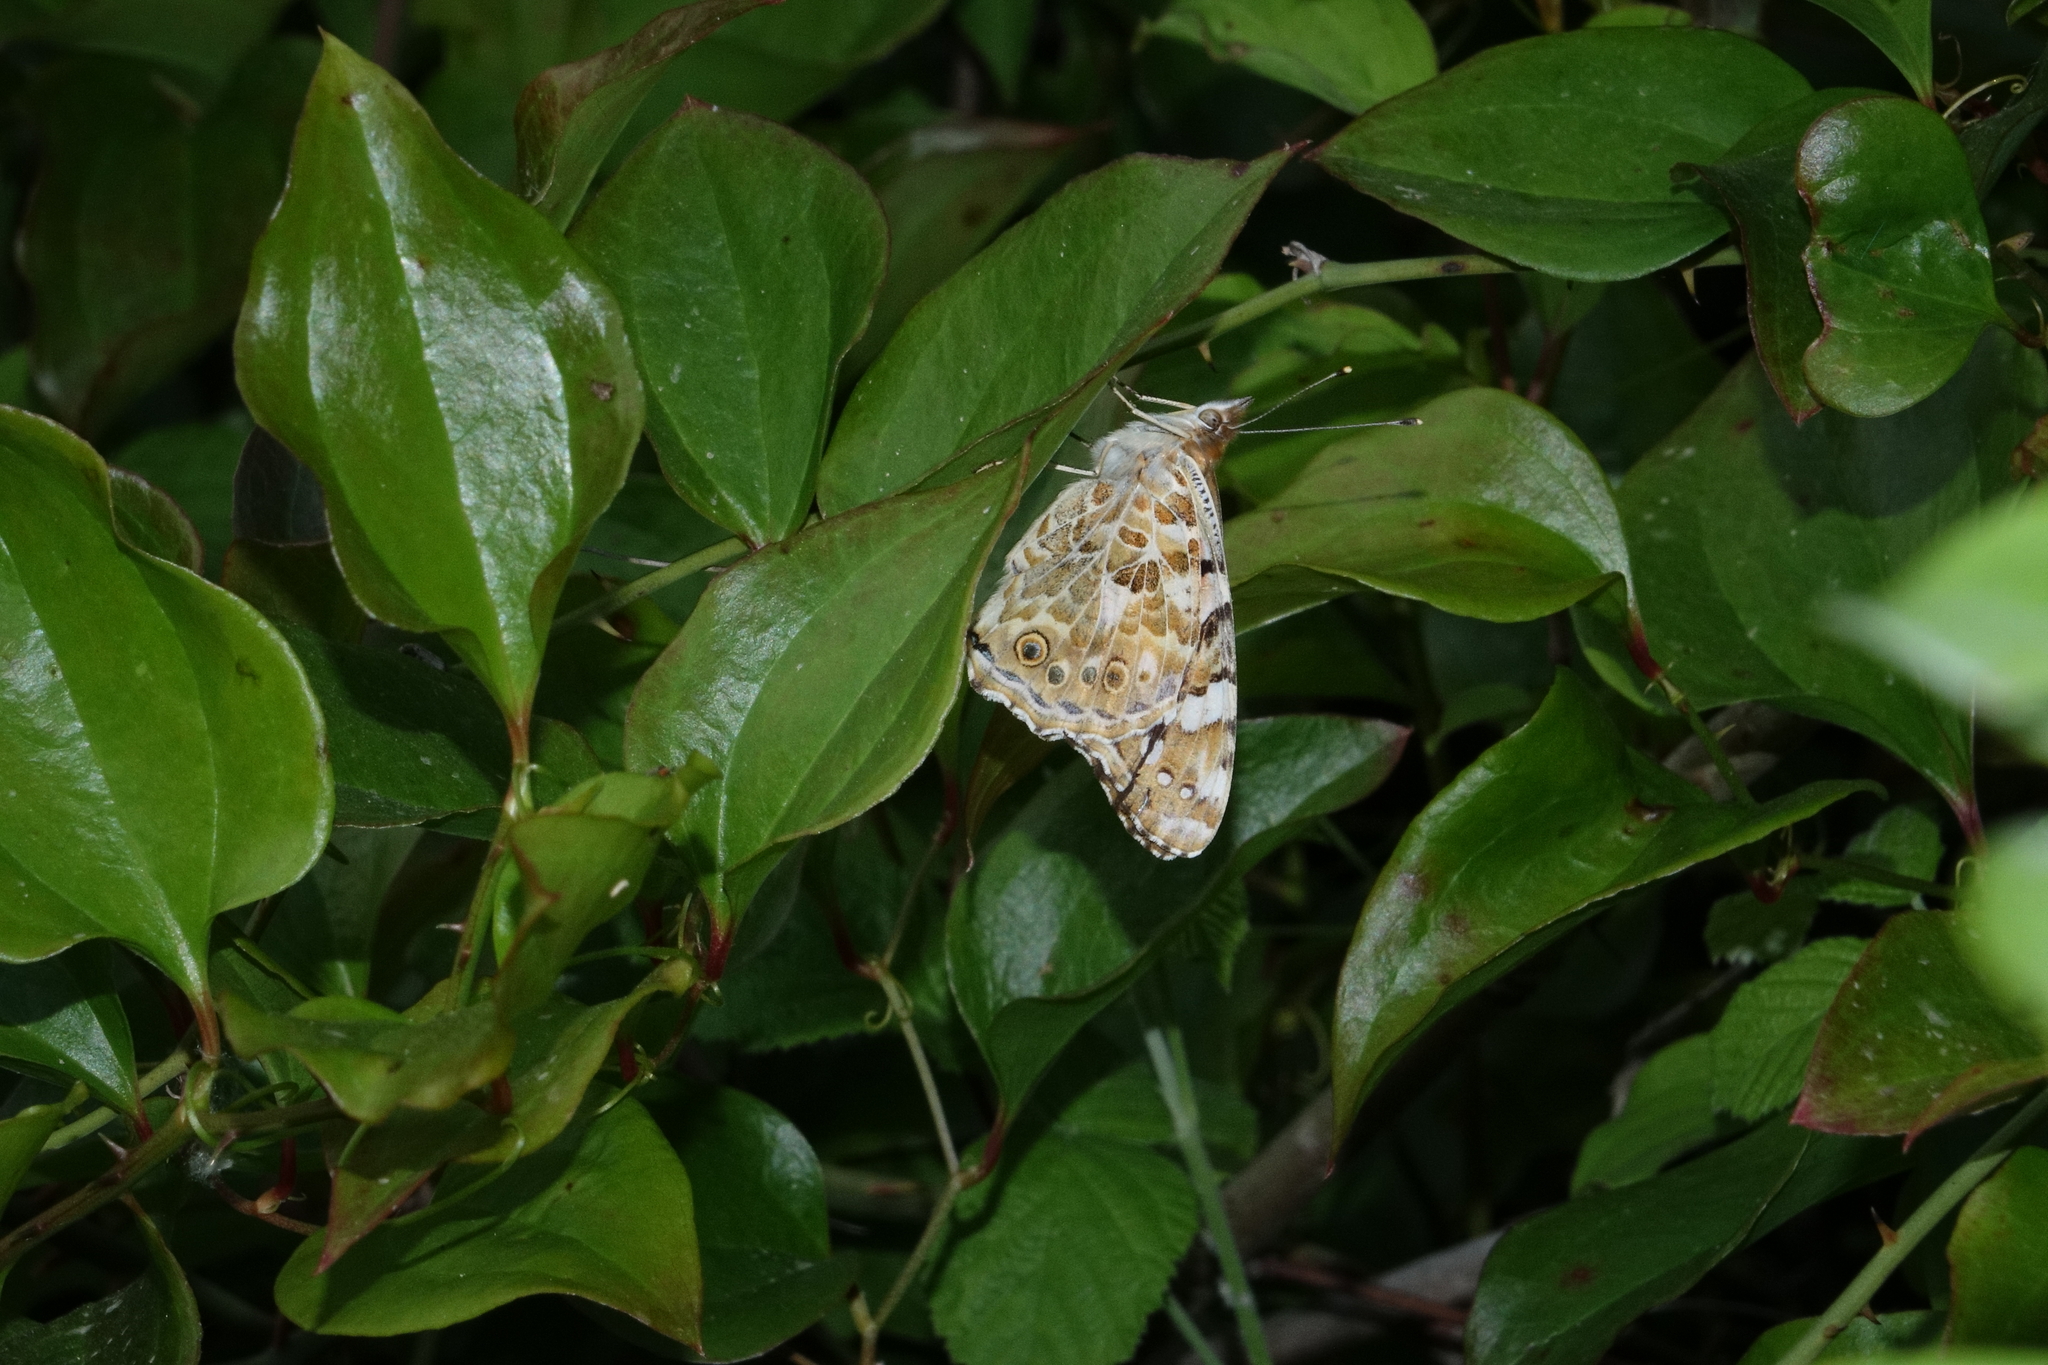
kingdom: Animalia
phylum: Arthropoda
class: Insecta
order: Lepidoptera
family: Nymphalidae
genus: Vanessa
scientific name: Vanessa cardui
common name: Painted lady
